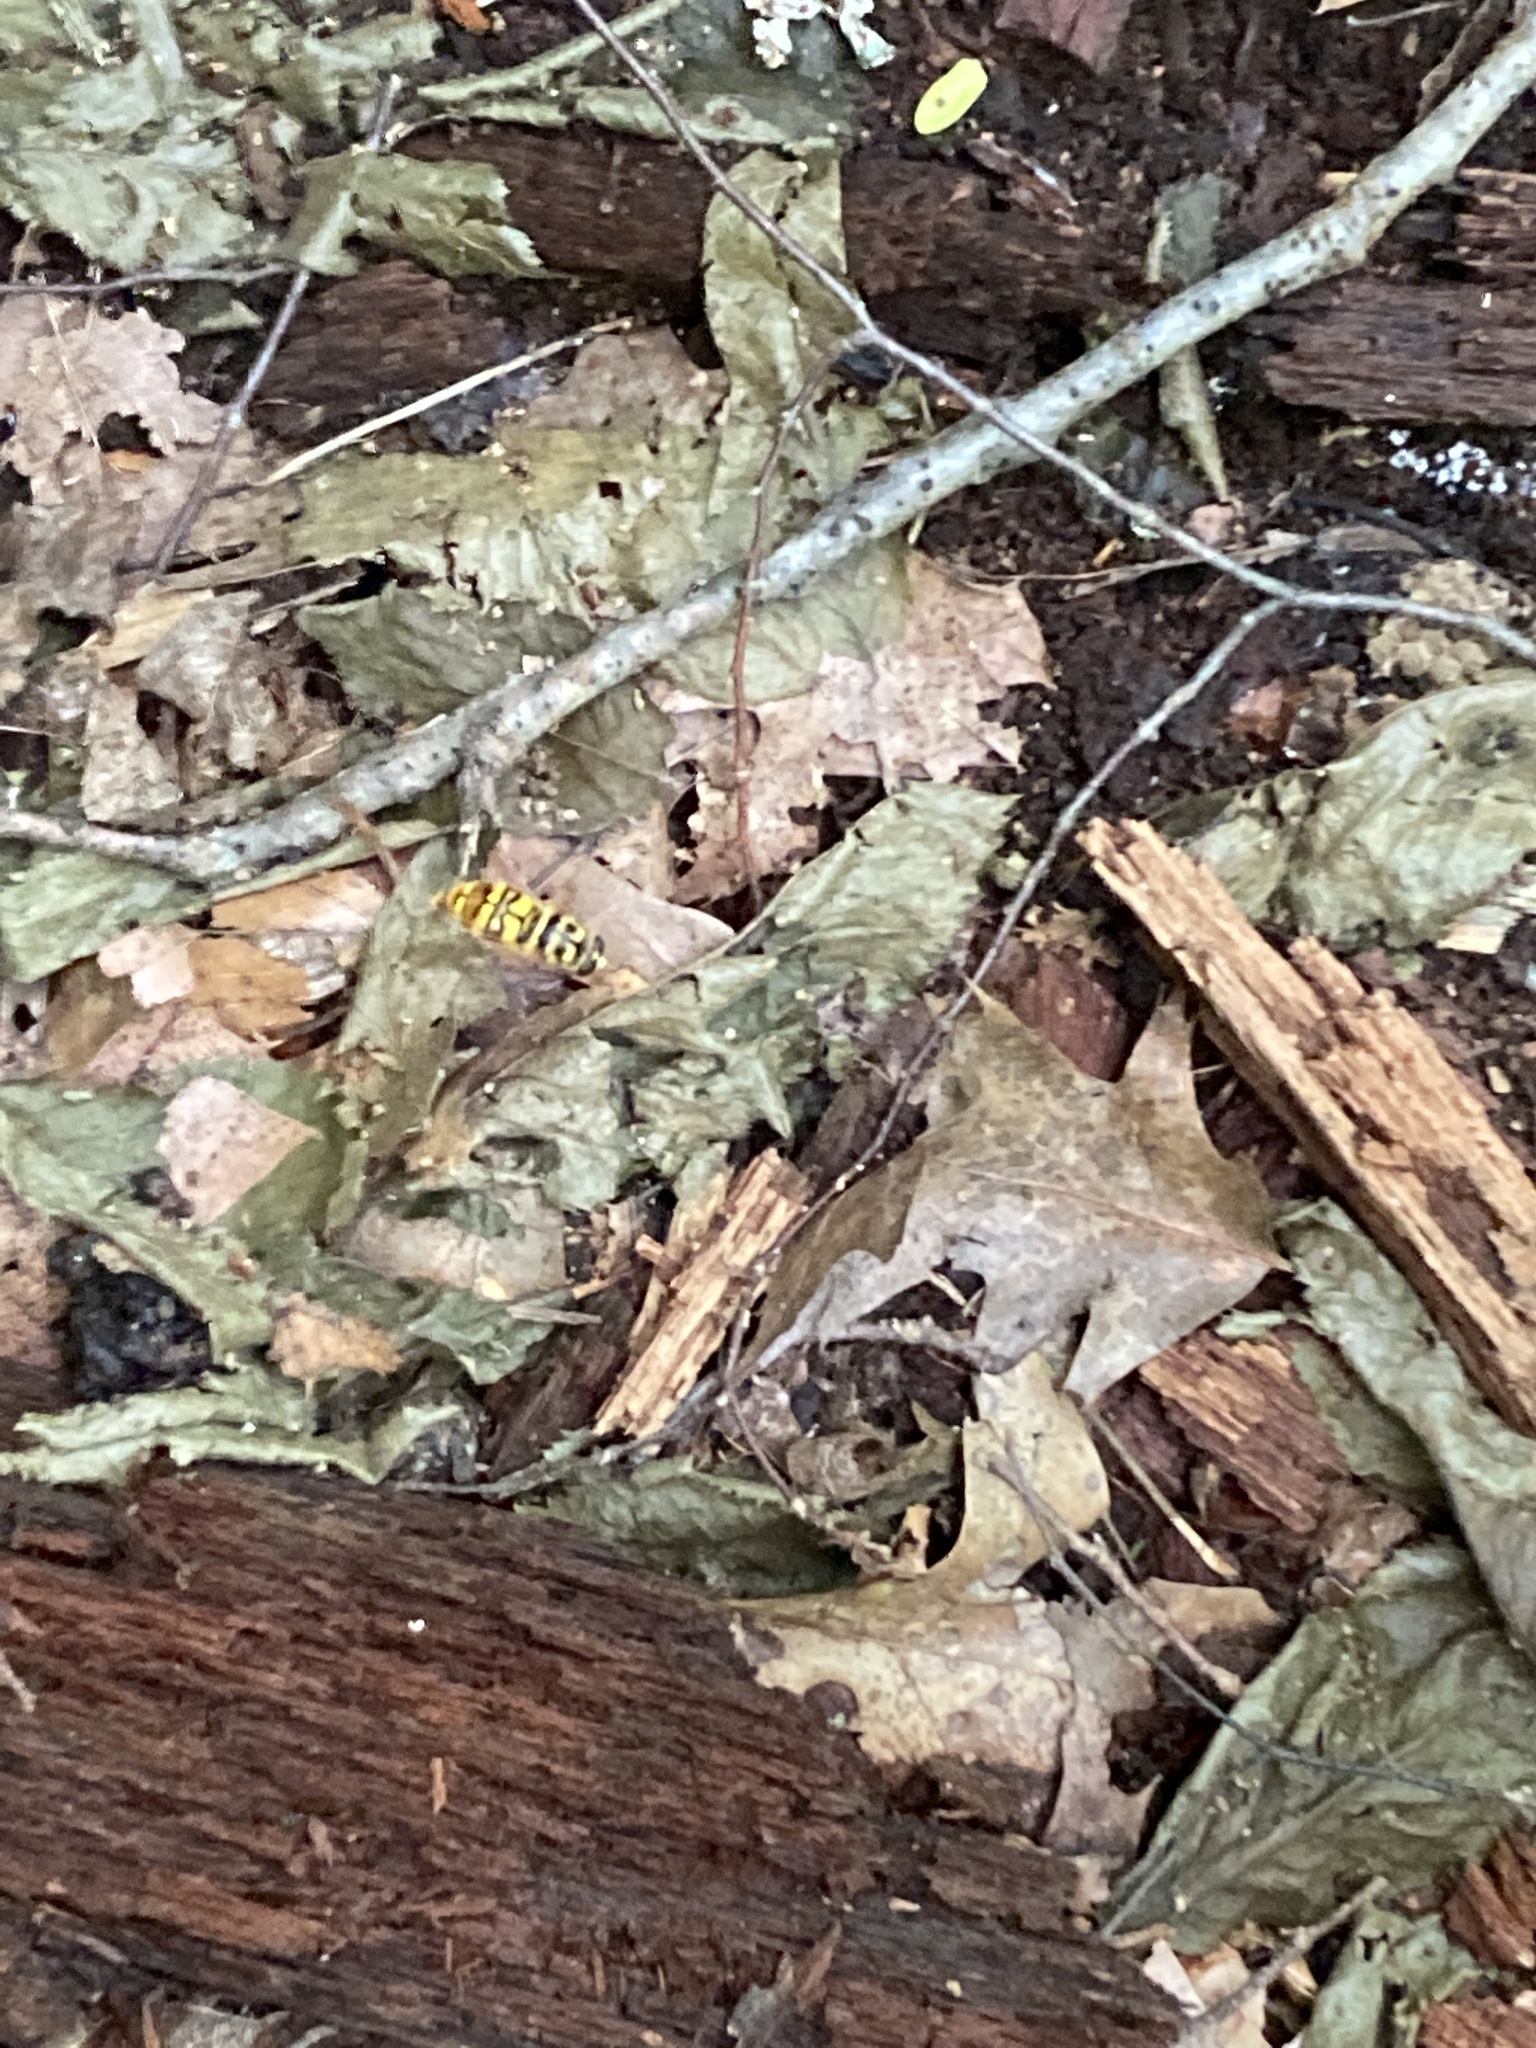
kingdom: Animalia
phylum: Arthropoda
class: Insecta
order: Diptera
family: Syrphidae
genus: Milesia
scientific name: Milesia virginiensis
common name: Virginia giant
